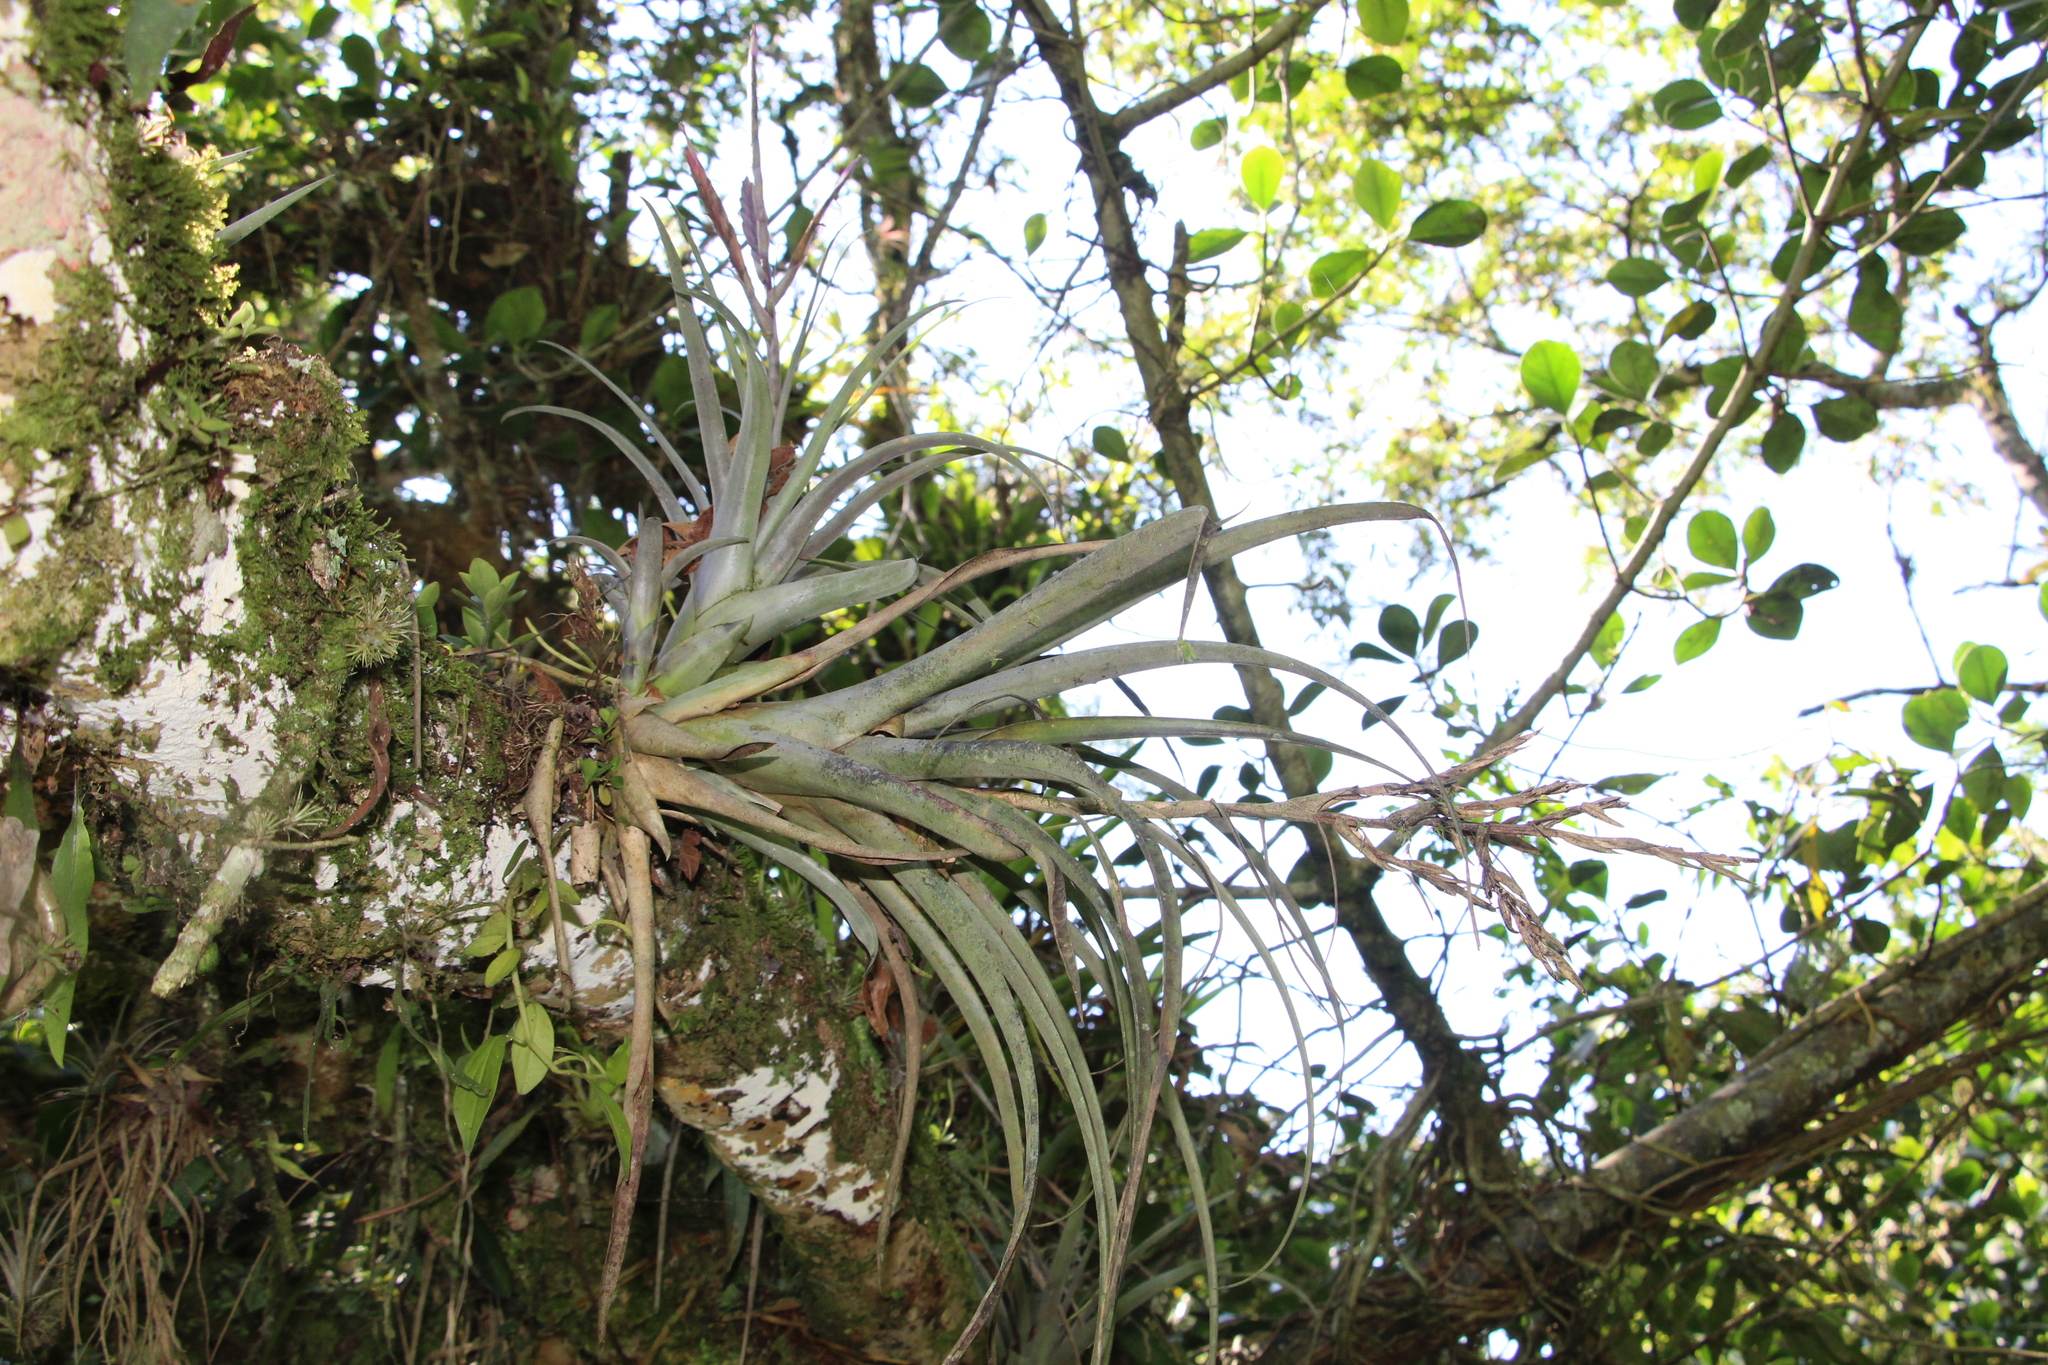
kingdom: Plantae
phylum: Tracheophyta
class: Liliopsida
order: Poales
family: Bromeliaceae
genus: Tillandsia
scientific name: Tillandsia variabilis
